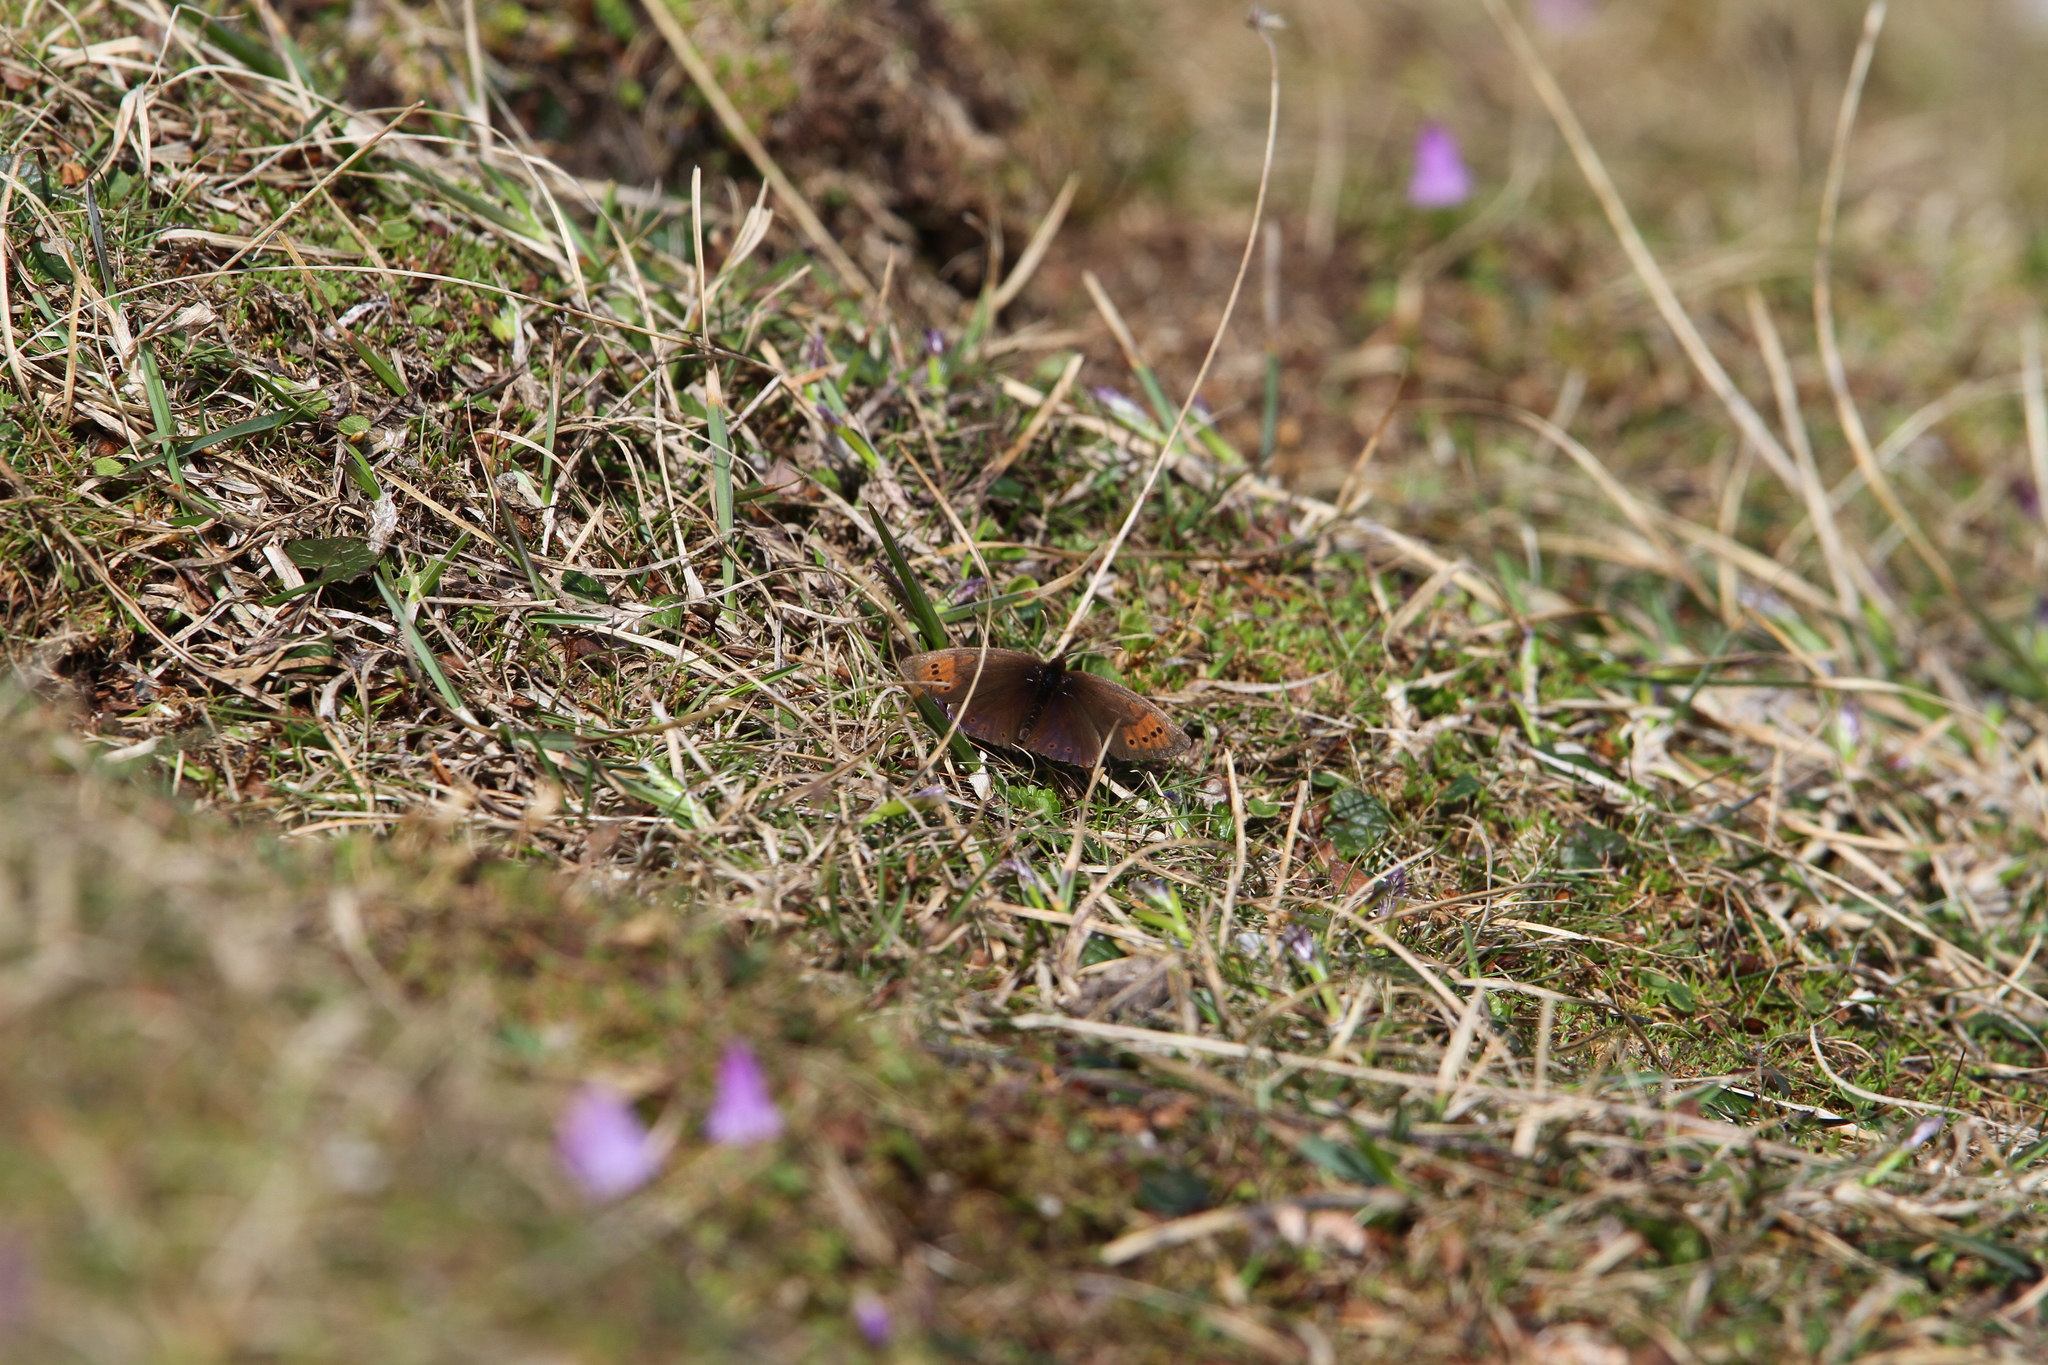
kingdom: Animalia
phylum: Arthropoda
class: Insecta
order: Lepidoptera
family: Nymphalidae
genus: Erebia
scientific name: Erebia pandrose
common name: Dewy ringlet
